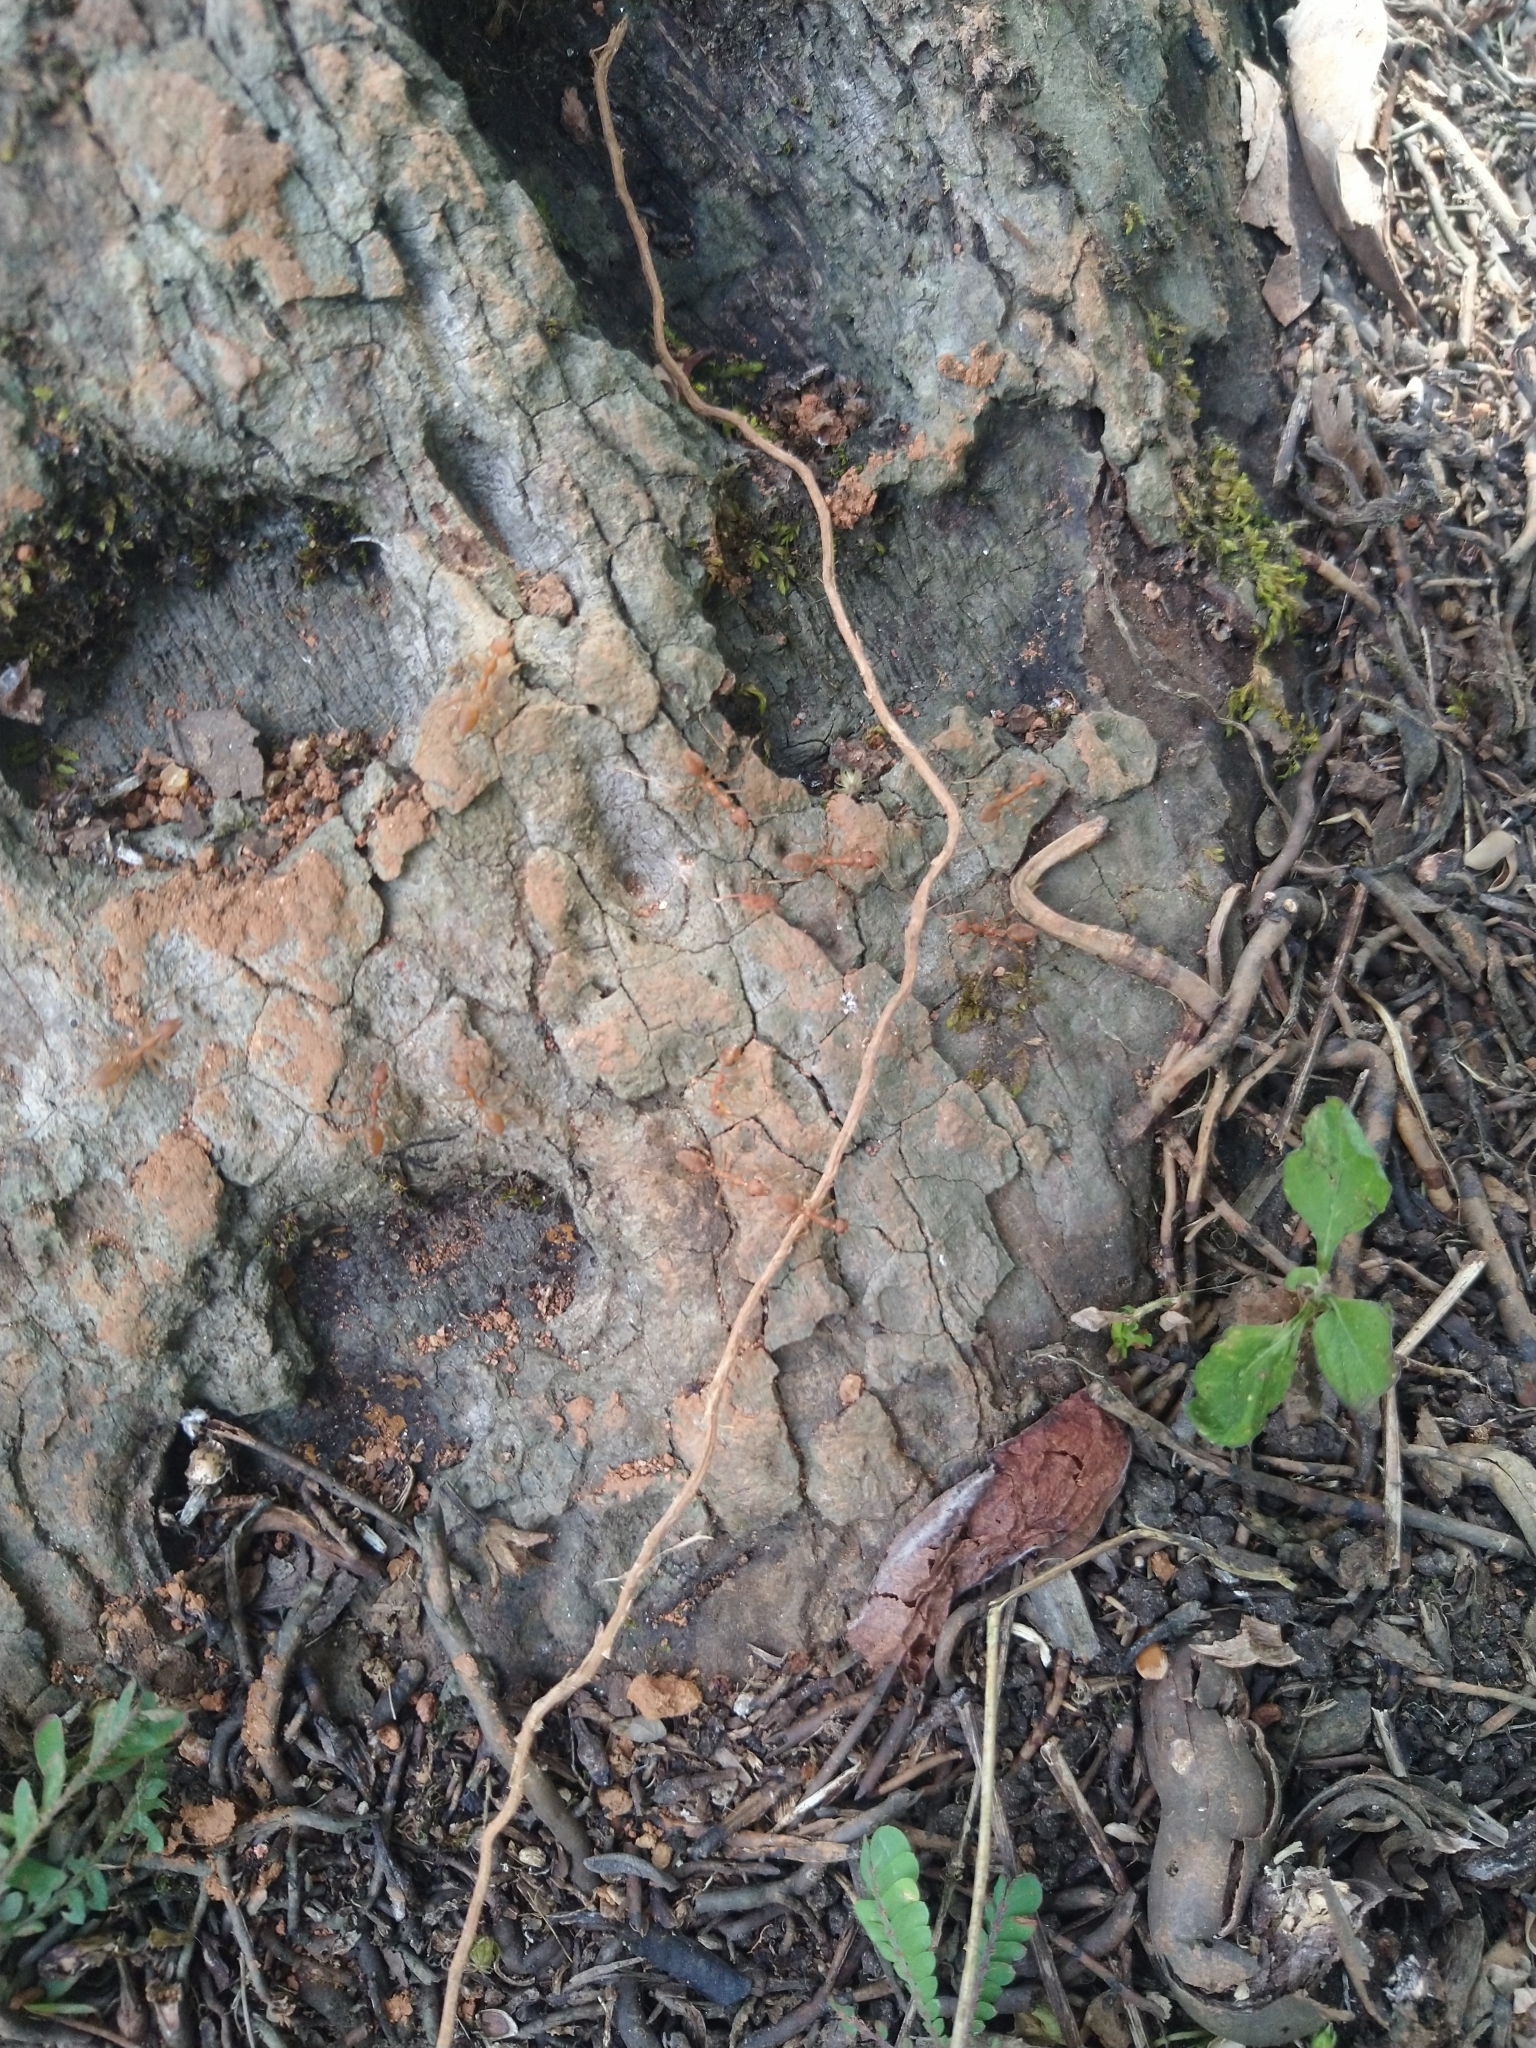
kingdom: Animalia
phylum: Arthropoda
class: Insecta
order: Hymenoptera
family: Formicidae
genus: Oecophylla
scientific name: Oecophylla smaragdina
